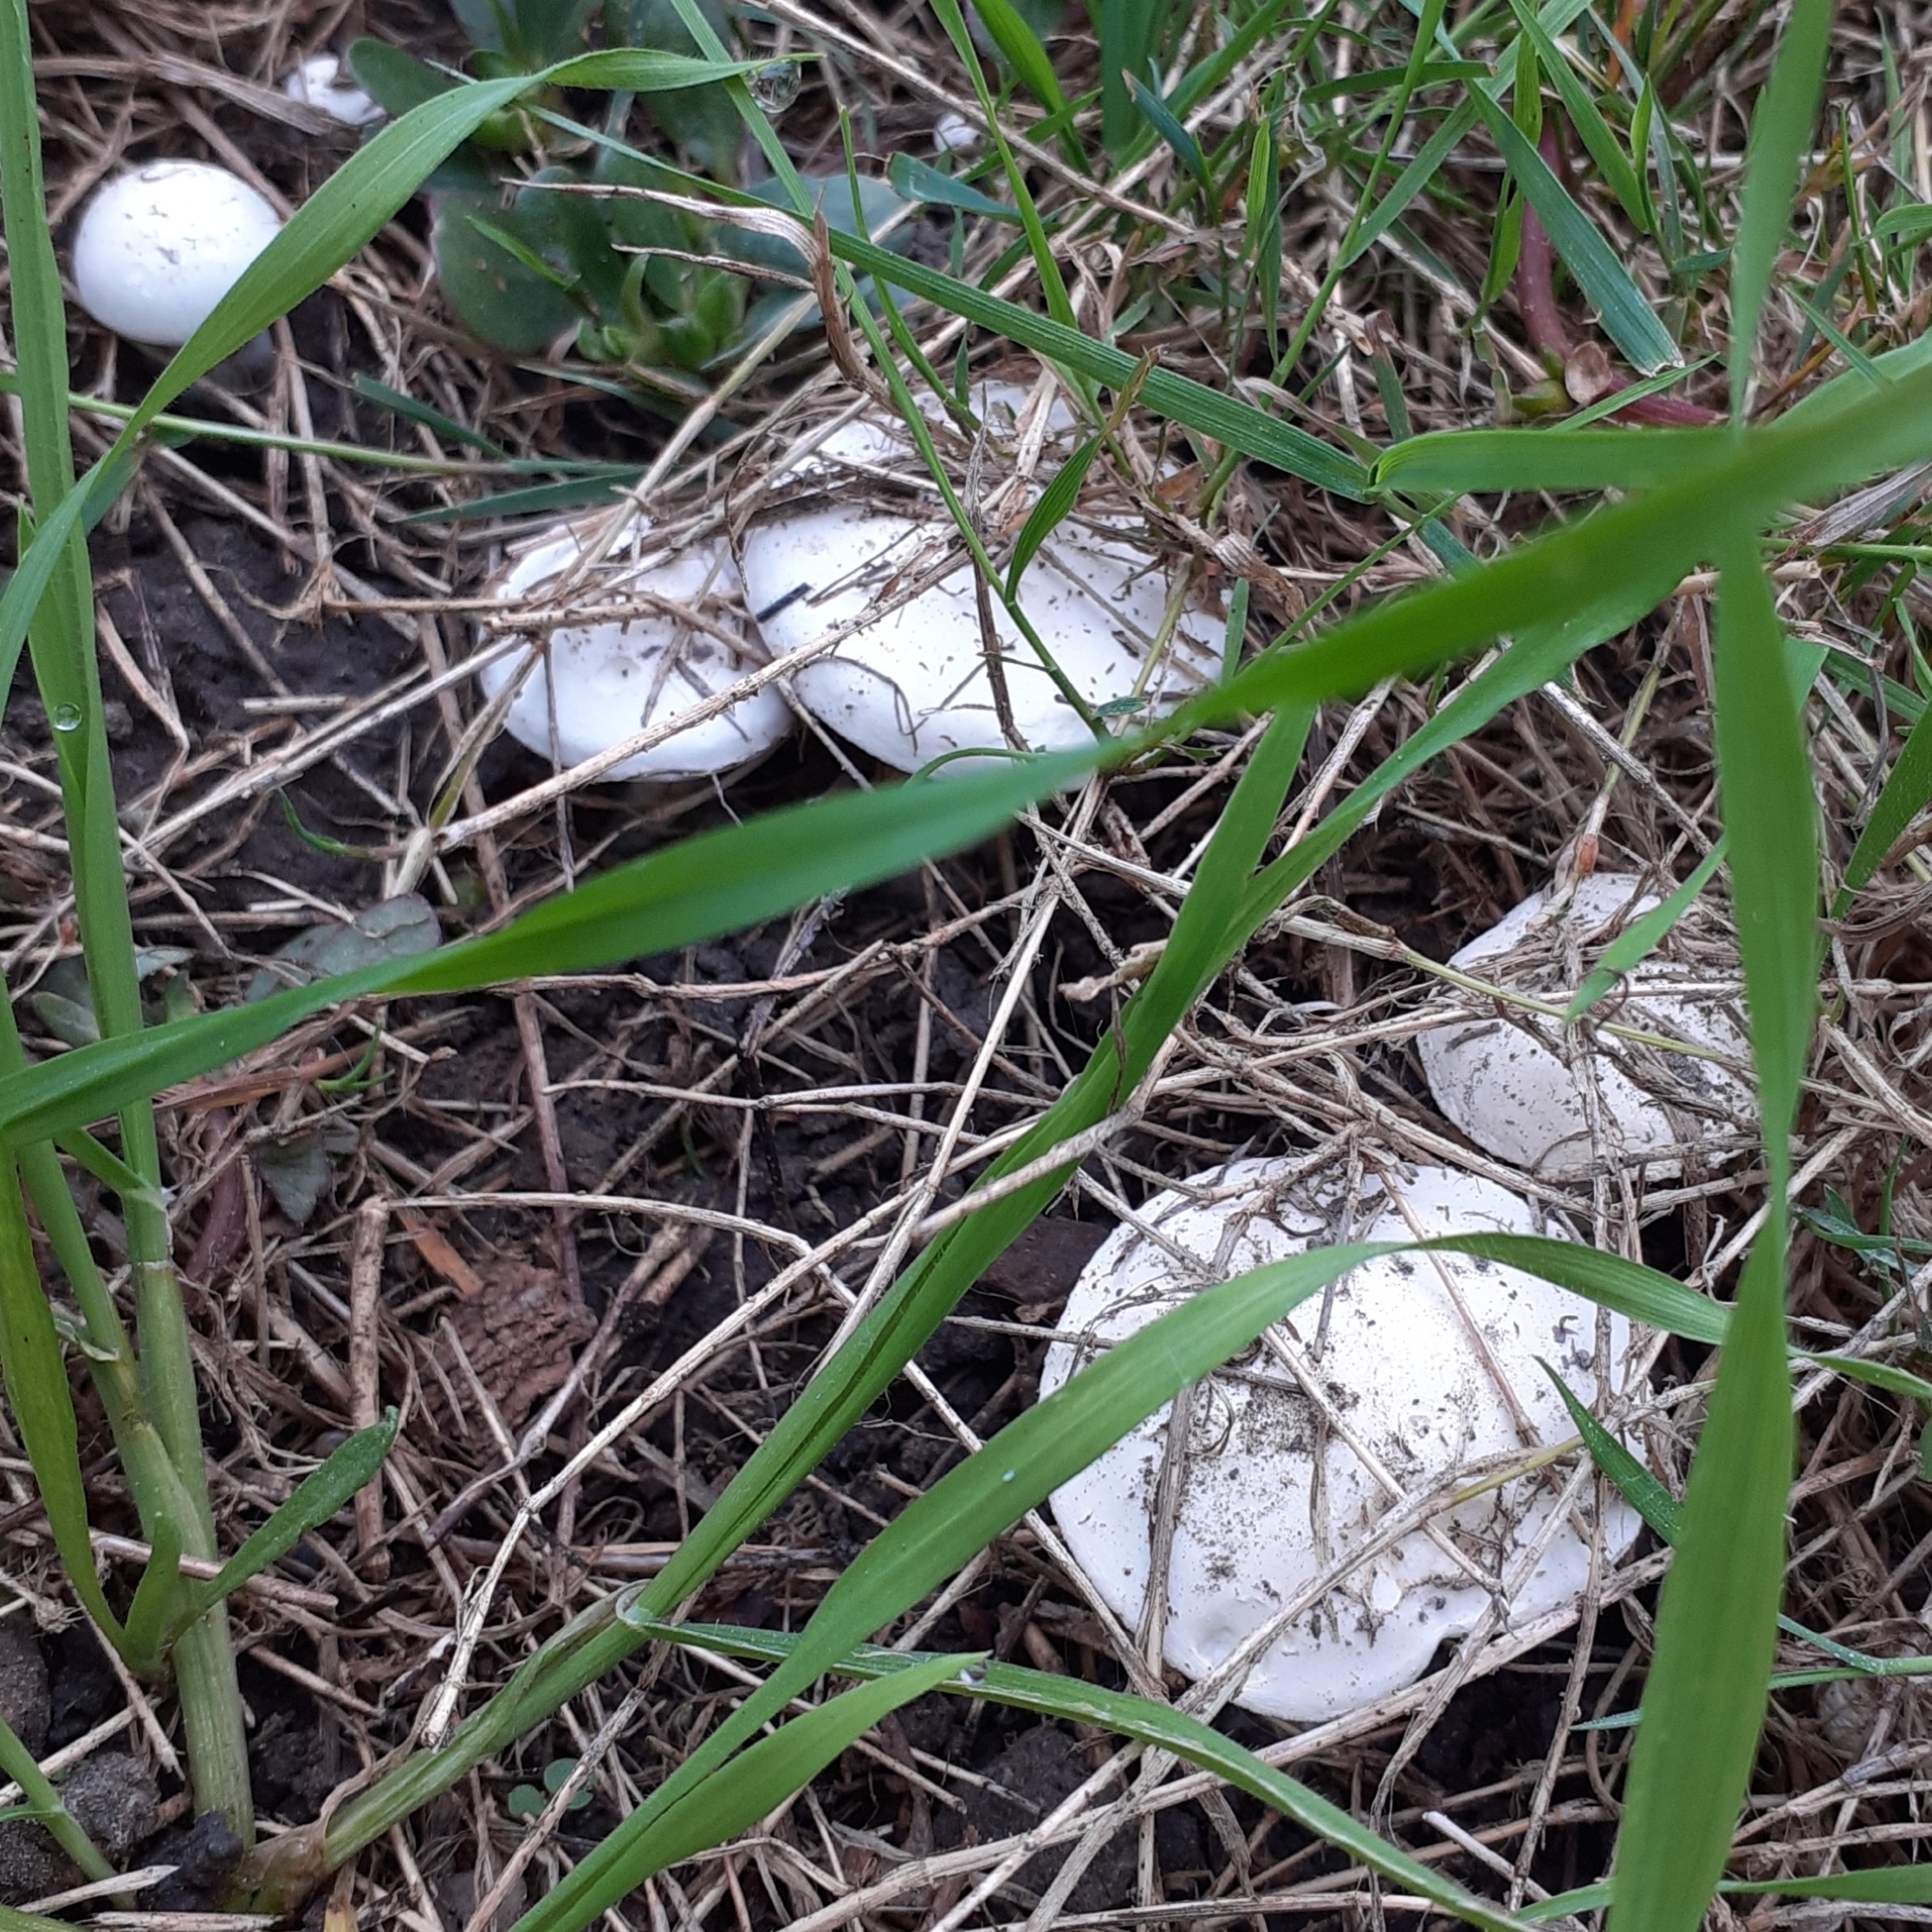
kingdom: Fungi
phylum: Basidiomycota
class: Agaricomycetes
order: Agaricales
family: Lyophyllaceae
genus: Tricholomella
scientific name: Tricholomella constricta
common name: Mealy domecap
